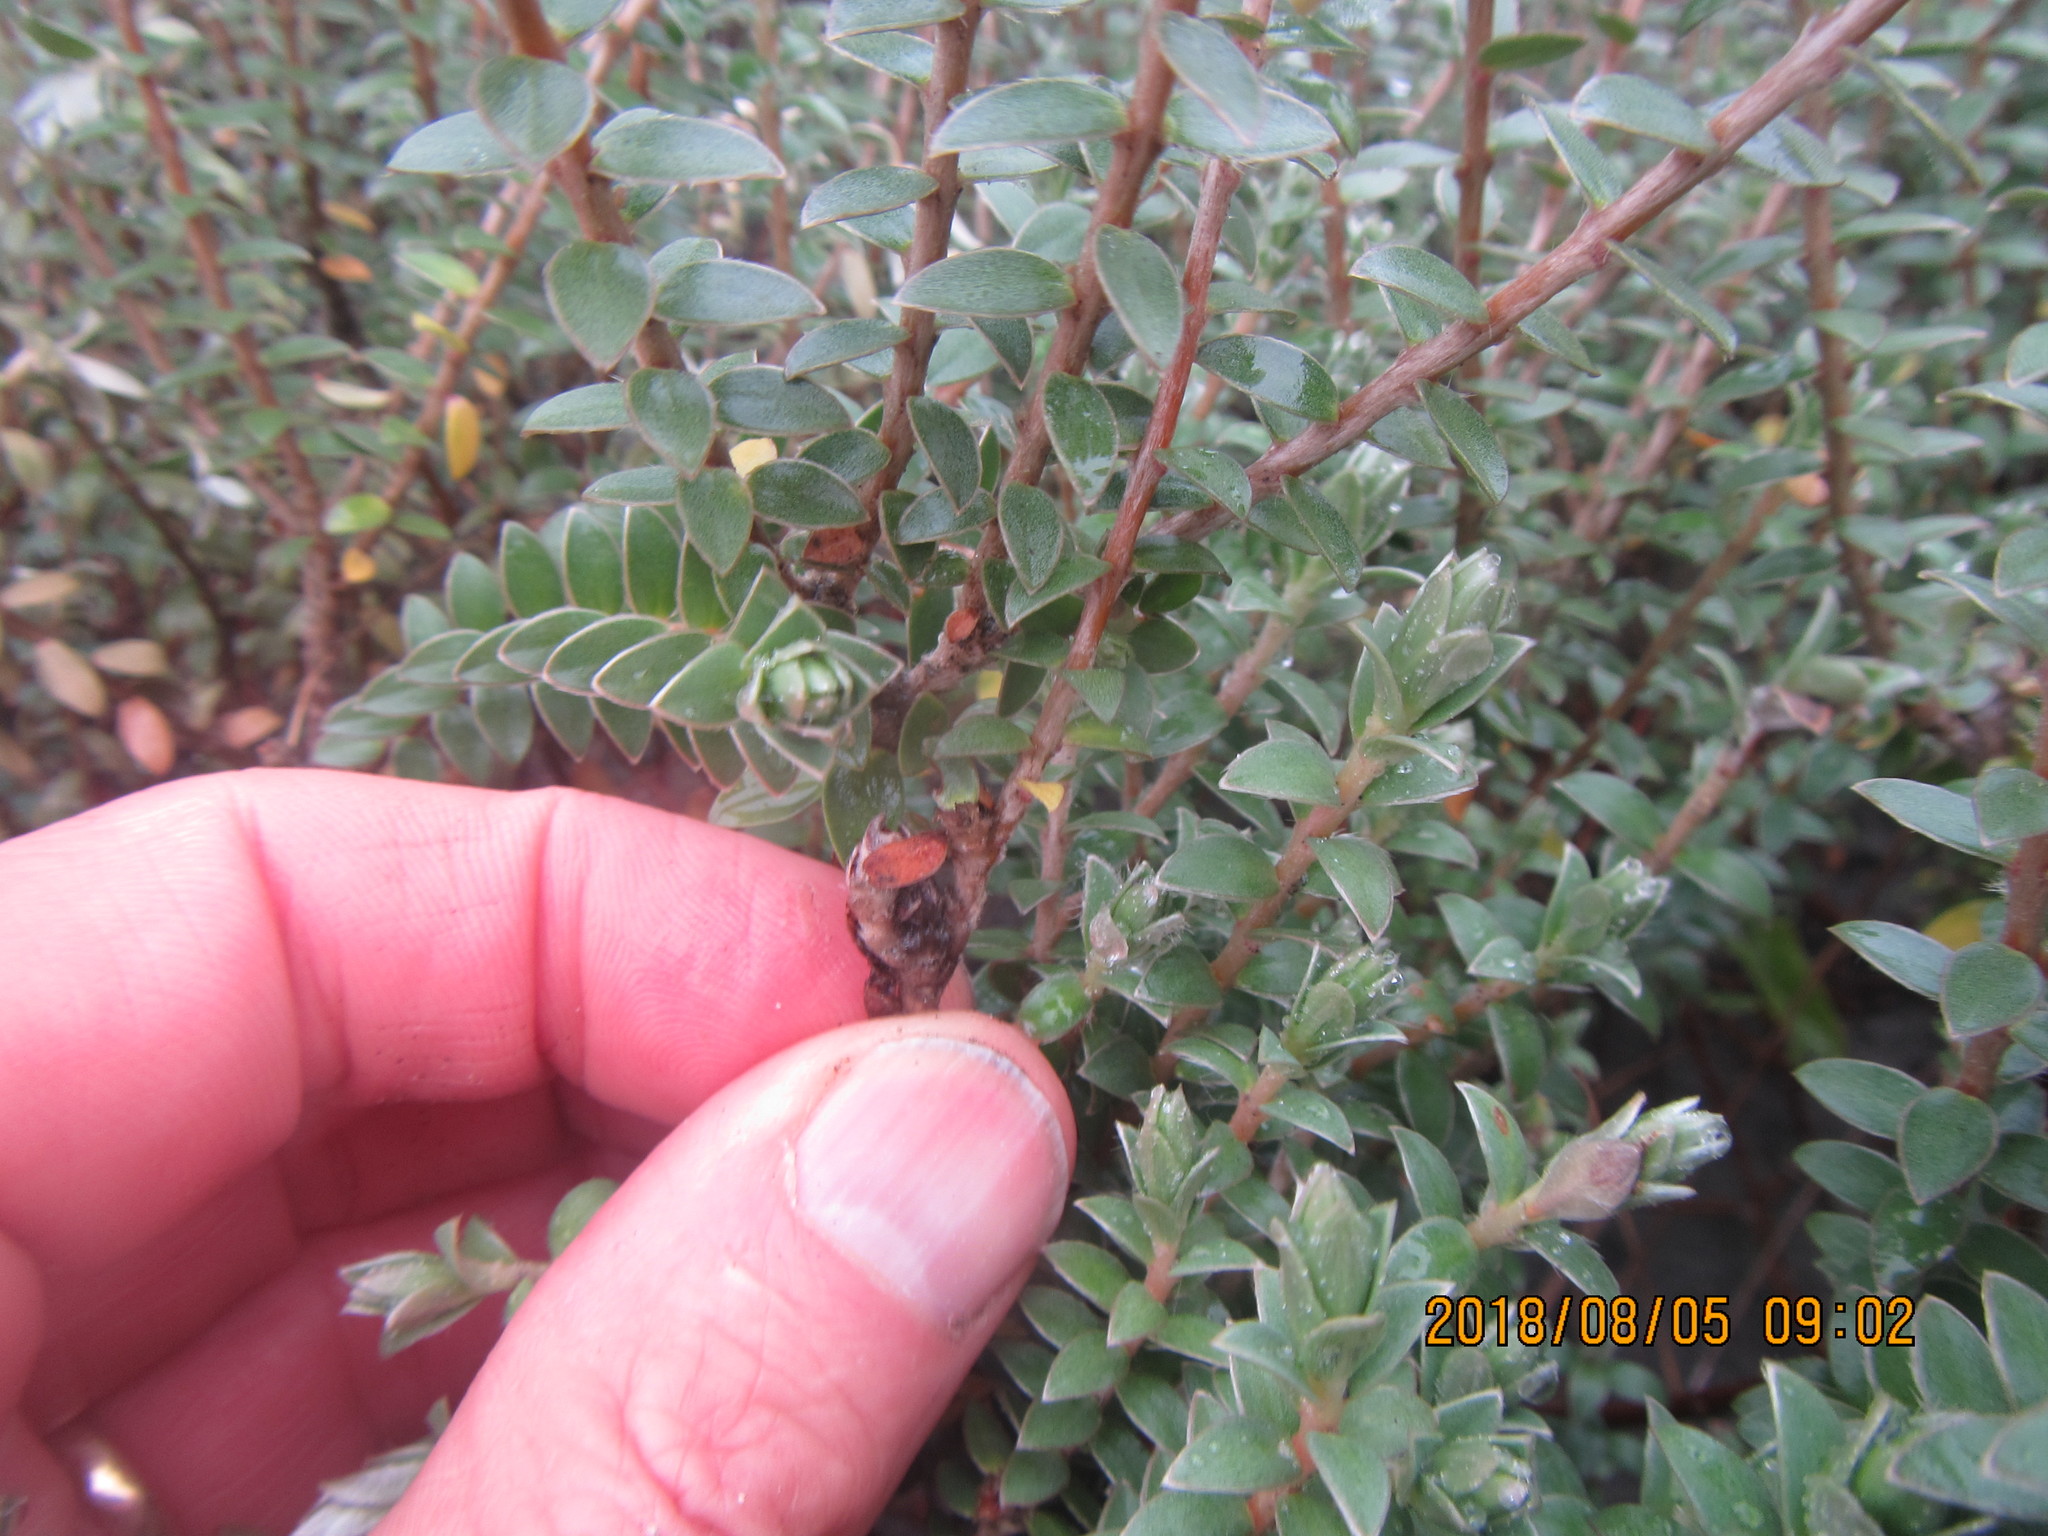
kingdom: Plantae
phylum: Tracheophyta
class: Magnoliopsida
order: Malvales
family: Thymelaeaceae
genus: Pimelea
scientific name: Pimelea villosa
